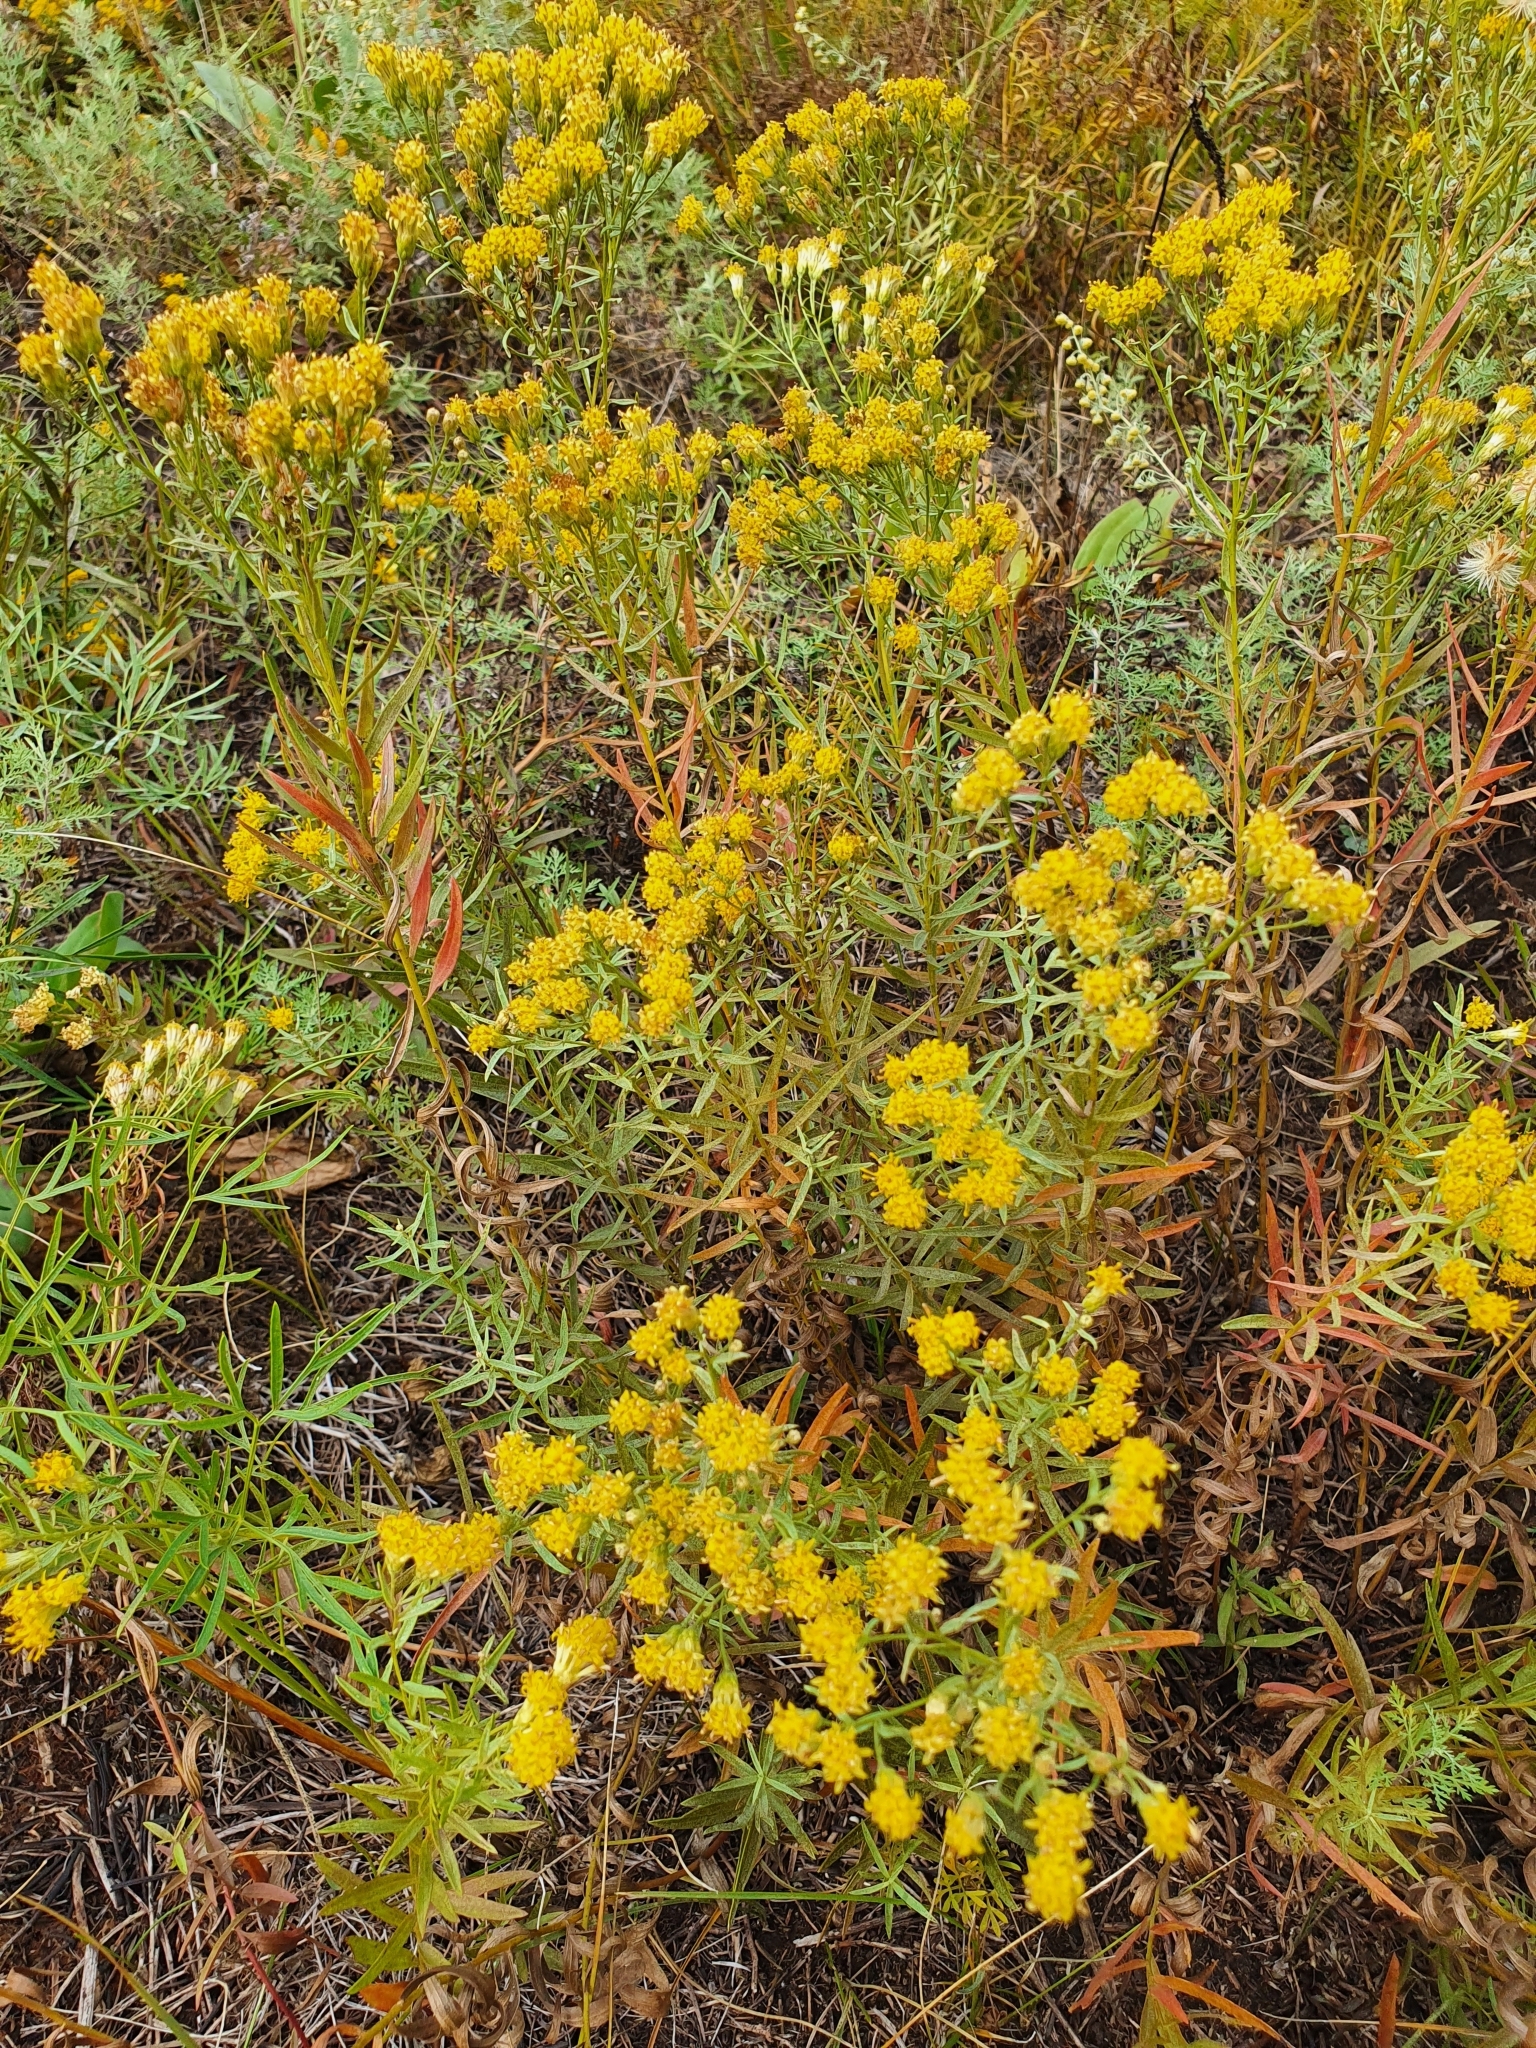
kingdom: Plantae
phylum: Tracheophyta
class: Magnoliopsida
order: Asterales
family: Asteraceae
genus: Galatella
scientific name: Galatella biflora
